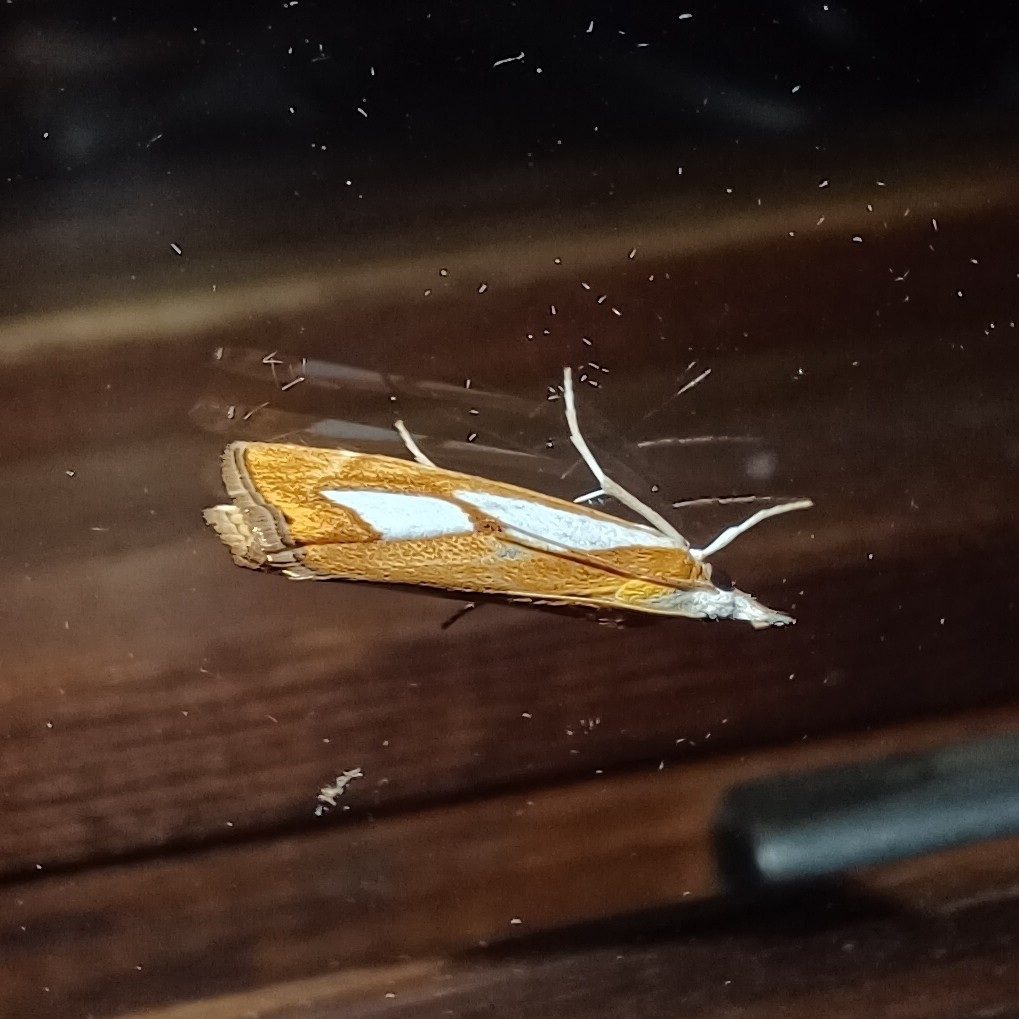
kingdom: Animalia
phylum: Arthropoda
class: Insecta
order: Lepidoptera
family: Crambidae
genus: Catoptria
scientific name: Catoptria pinella
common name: Pearl grass-veneer
